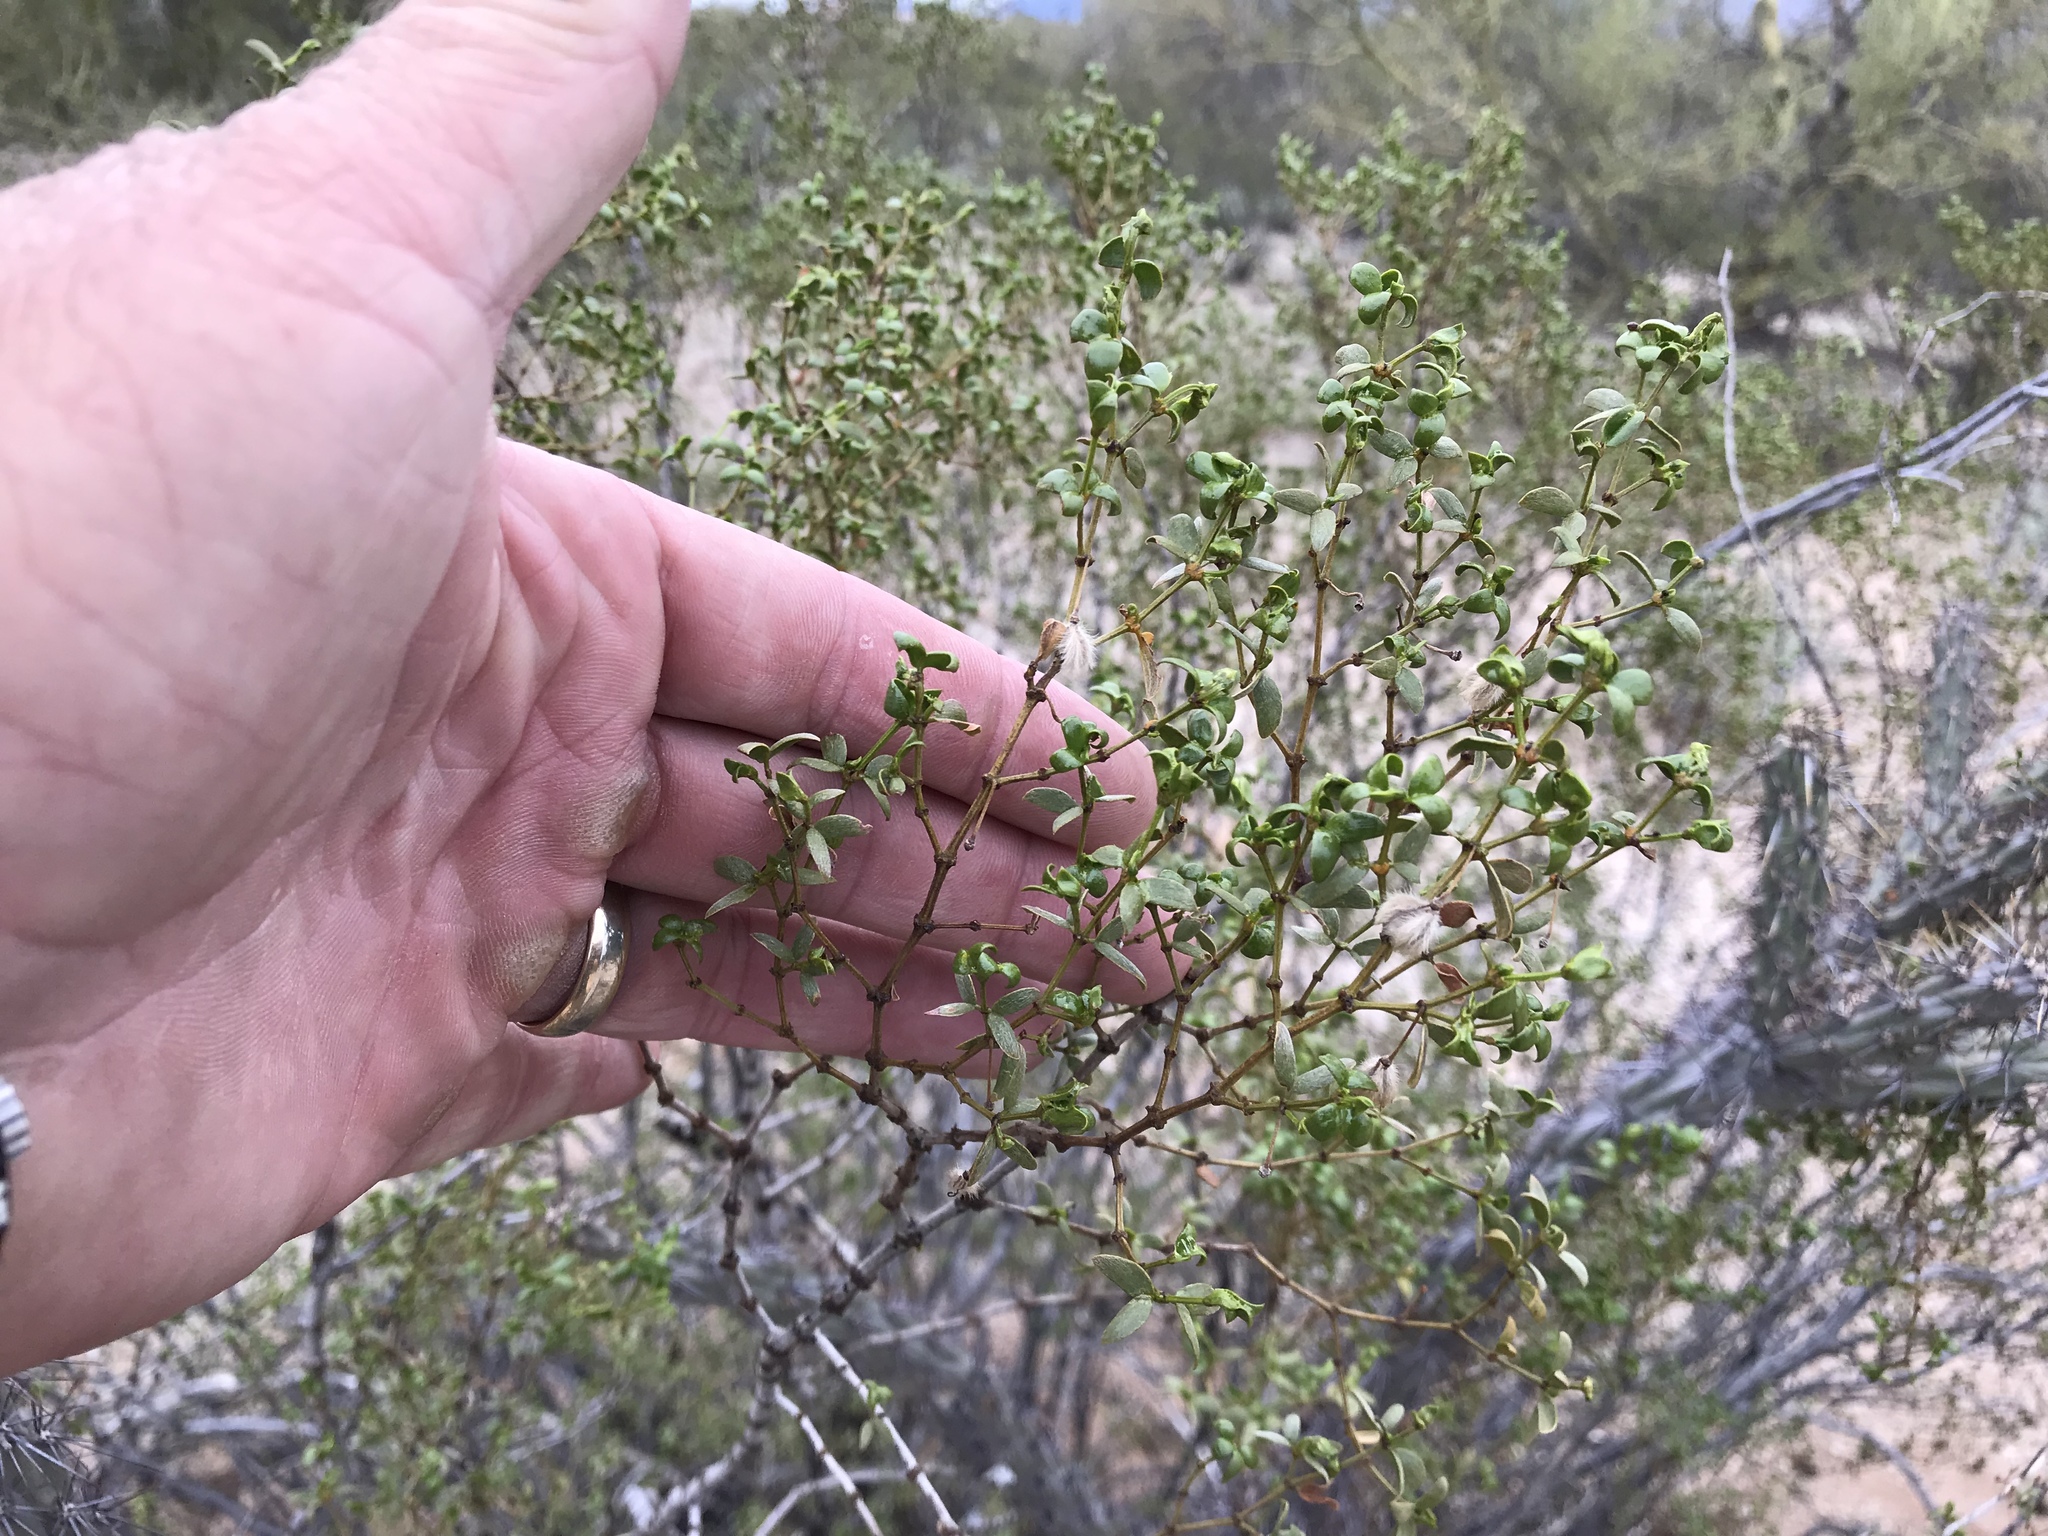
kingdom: Plantae
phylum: Tracheophyta
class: Magnoliopsida
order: Zygophyllales
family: Zygophyllaceae
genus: Larrea
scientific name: Larrea tridentata
